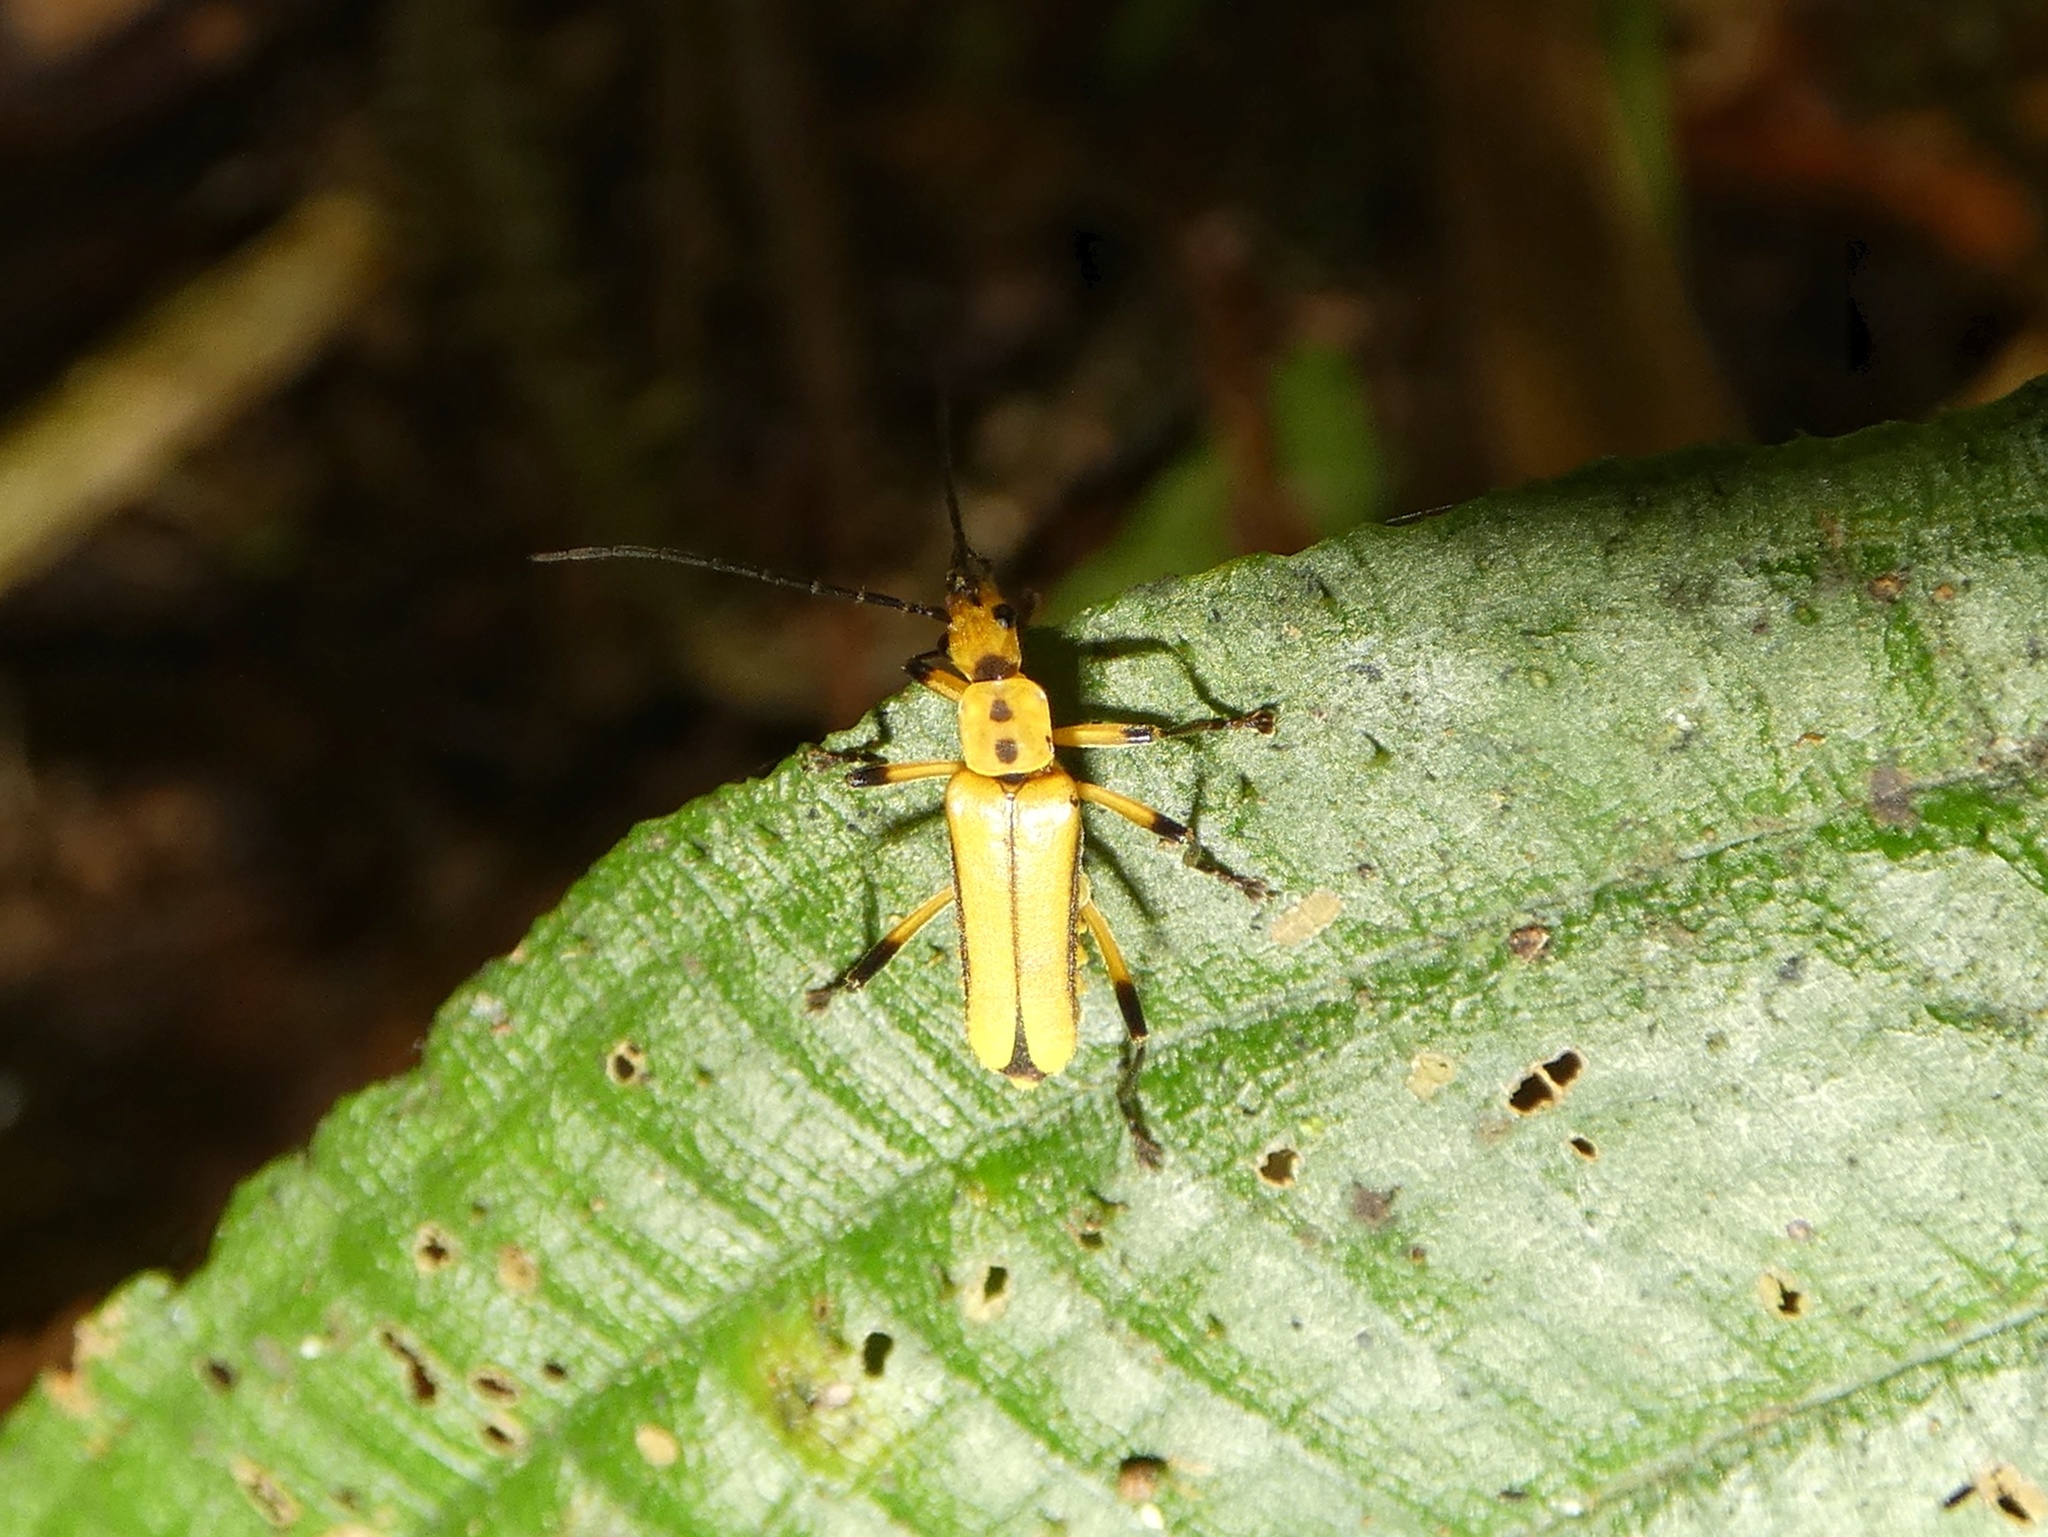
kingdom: Animalia
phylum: Arthropoda
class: Insecta
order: Coleoptera
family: Cantharidae
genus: Chauliognathus
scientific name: Chauliognathus
